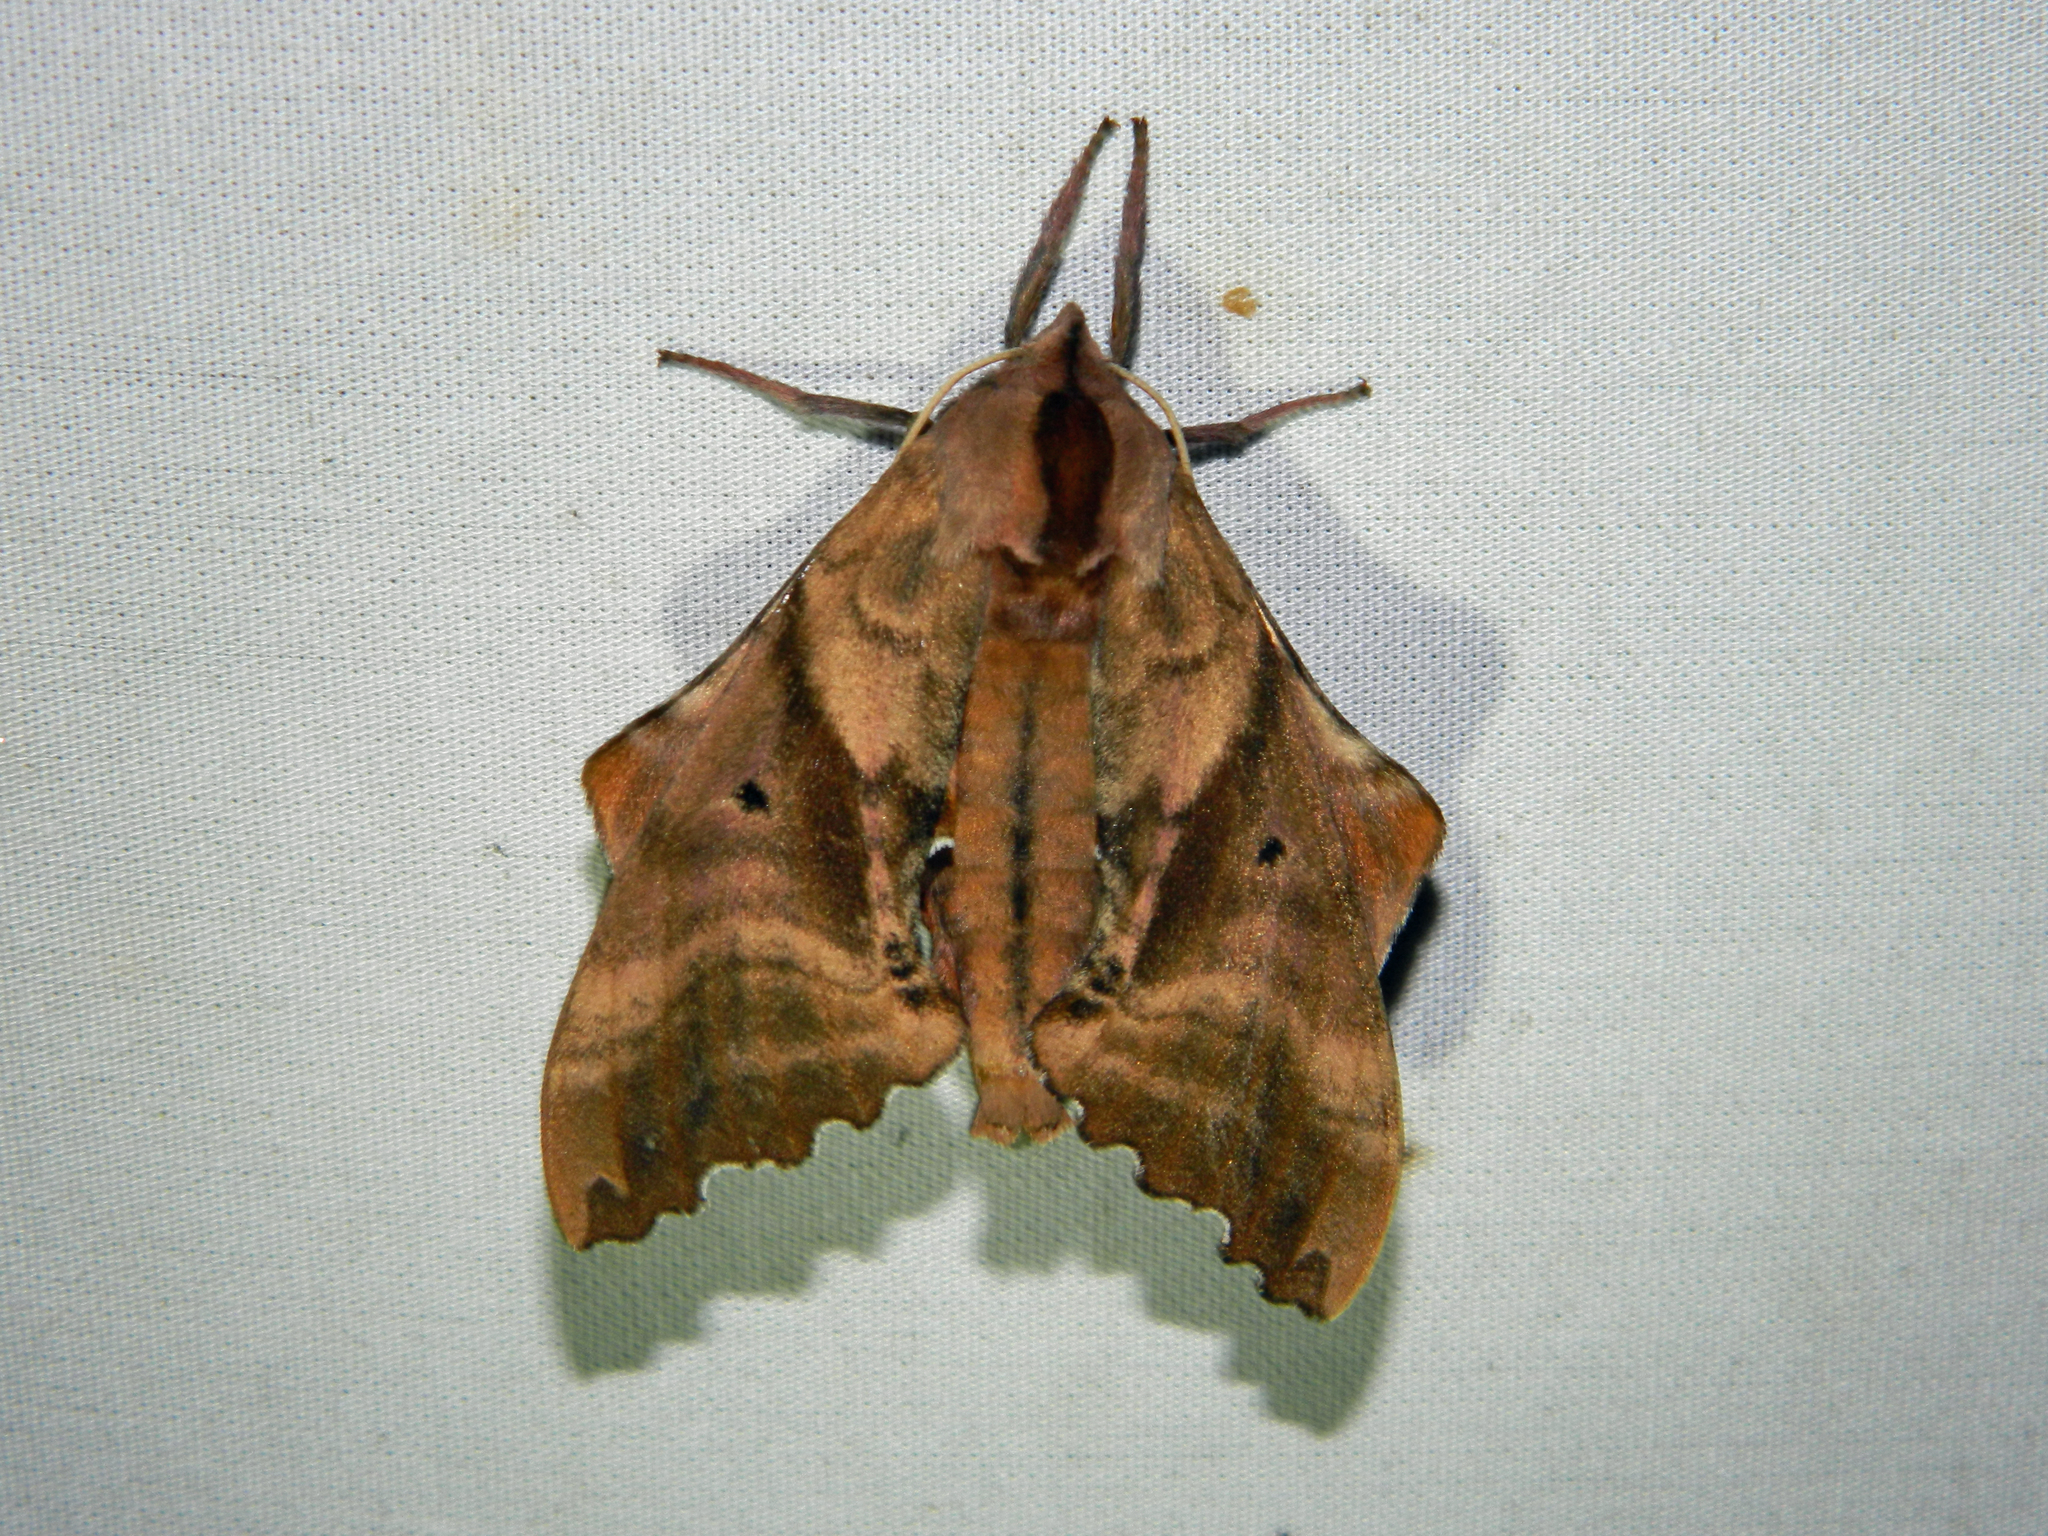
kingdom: Animalia
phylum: Arthropoda
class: Insecta
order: Lepidoptera
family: Sphingidae
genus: Paonias
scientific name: Paonias excaecata
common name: Blind-eyed sphinx
